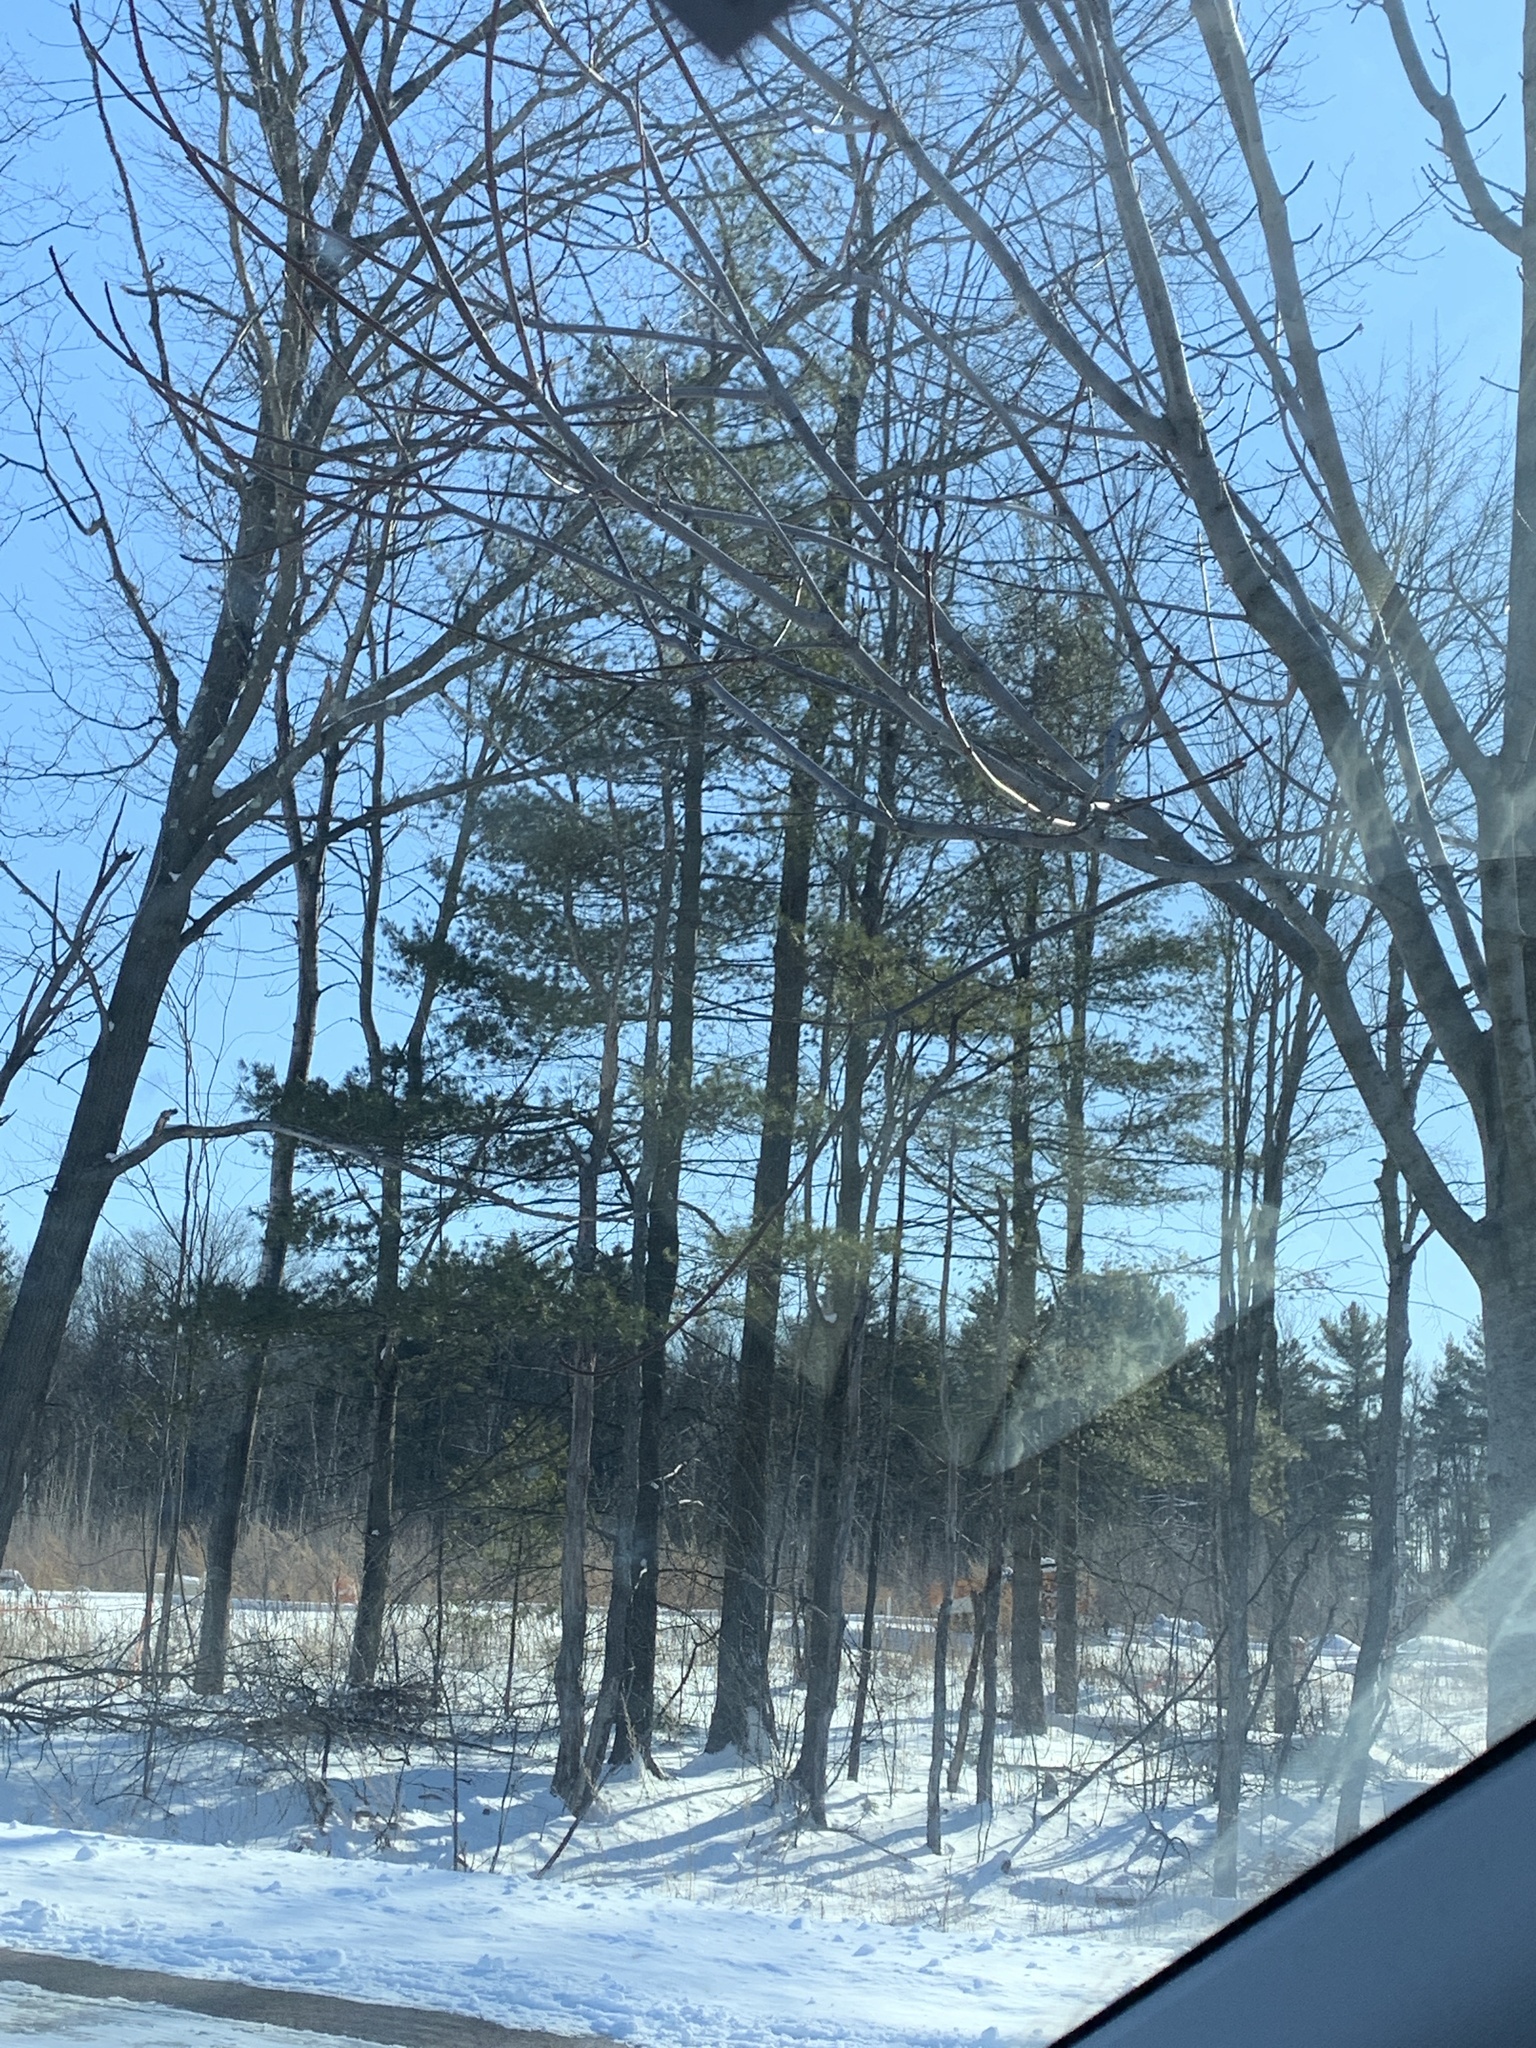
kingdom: Plantae
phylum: Tracheophyta
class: Pinopsida
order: Pinales
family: Pinaceae
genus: Pinus
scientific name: Pinus strobus
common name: Weymouth pine
